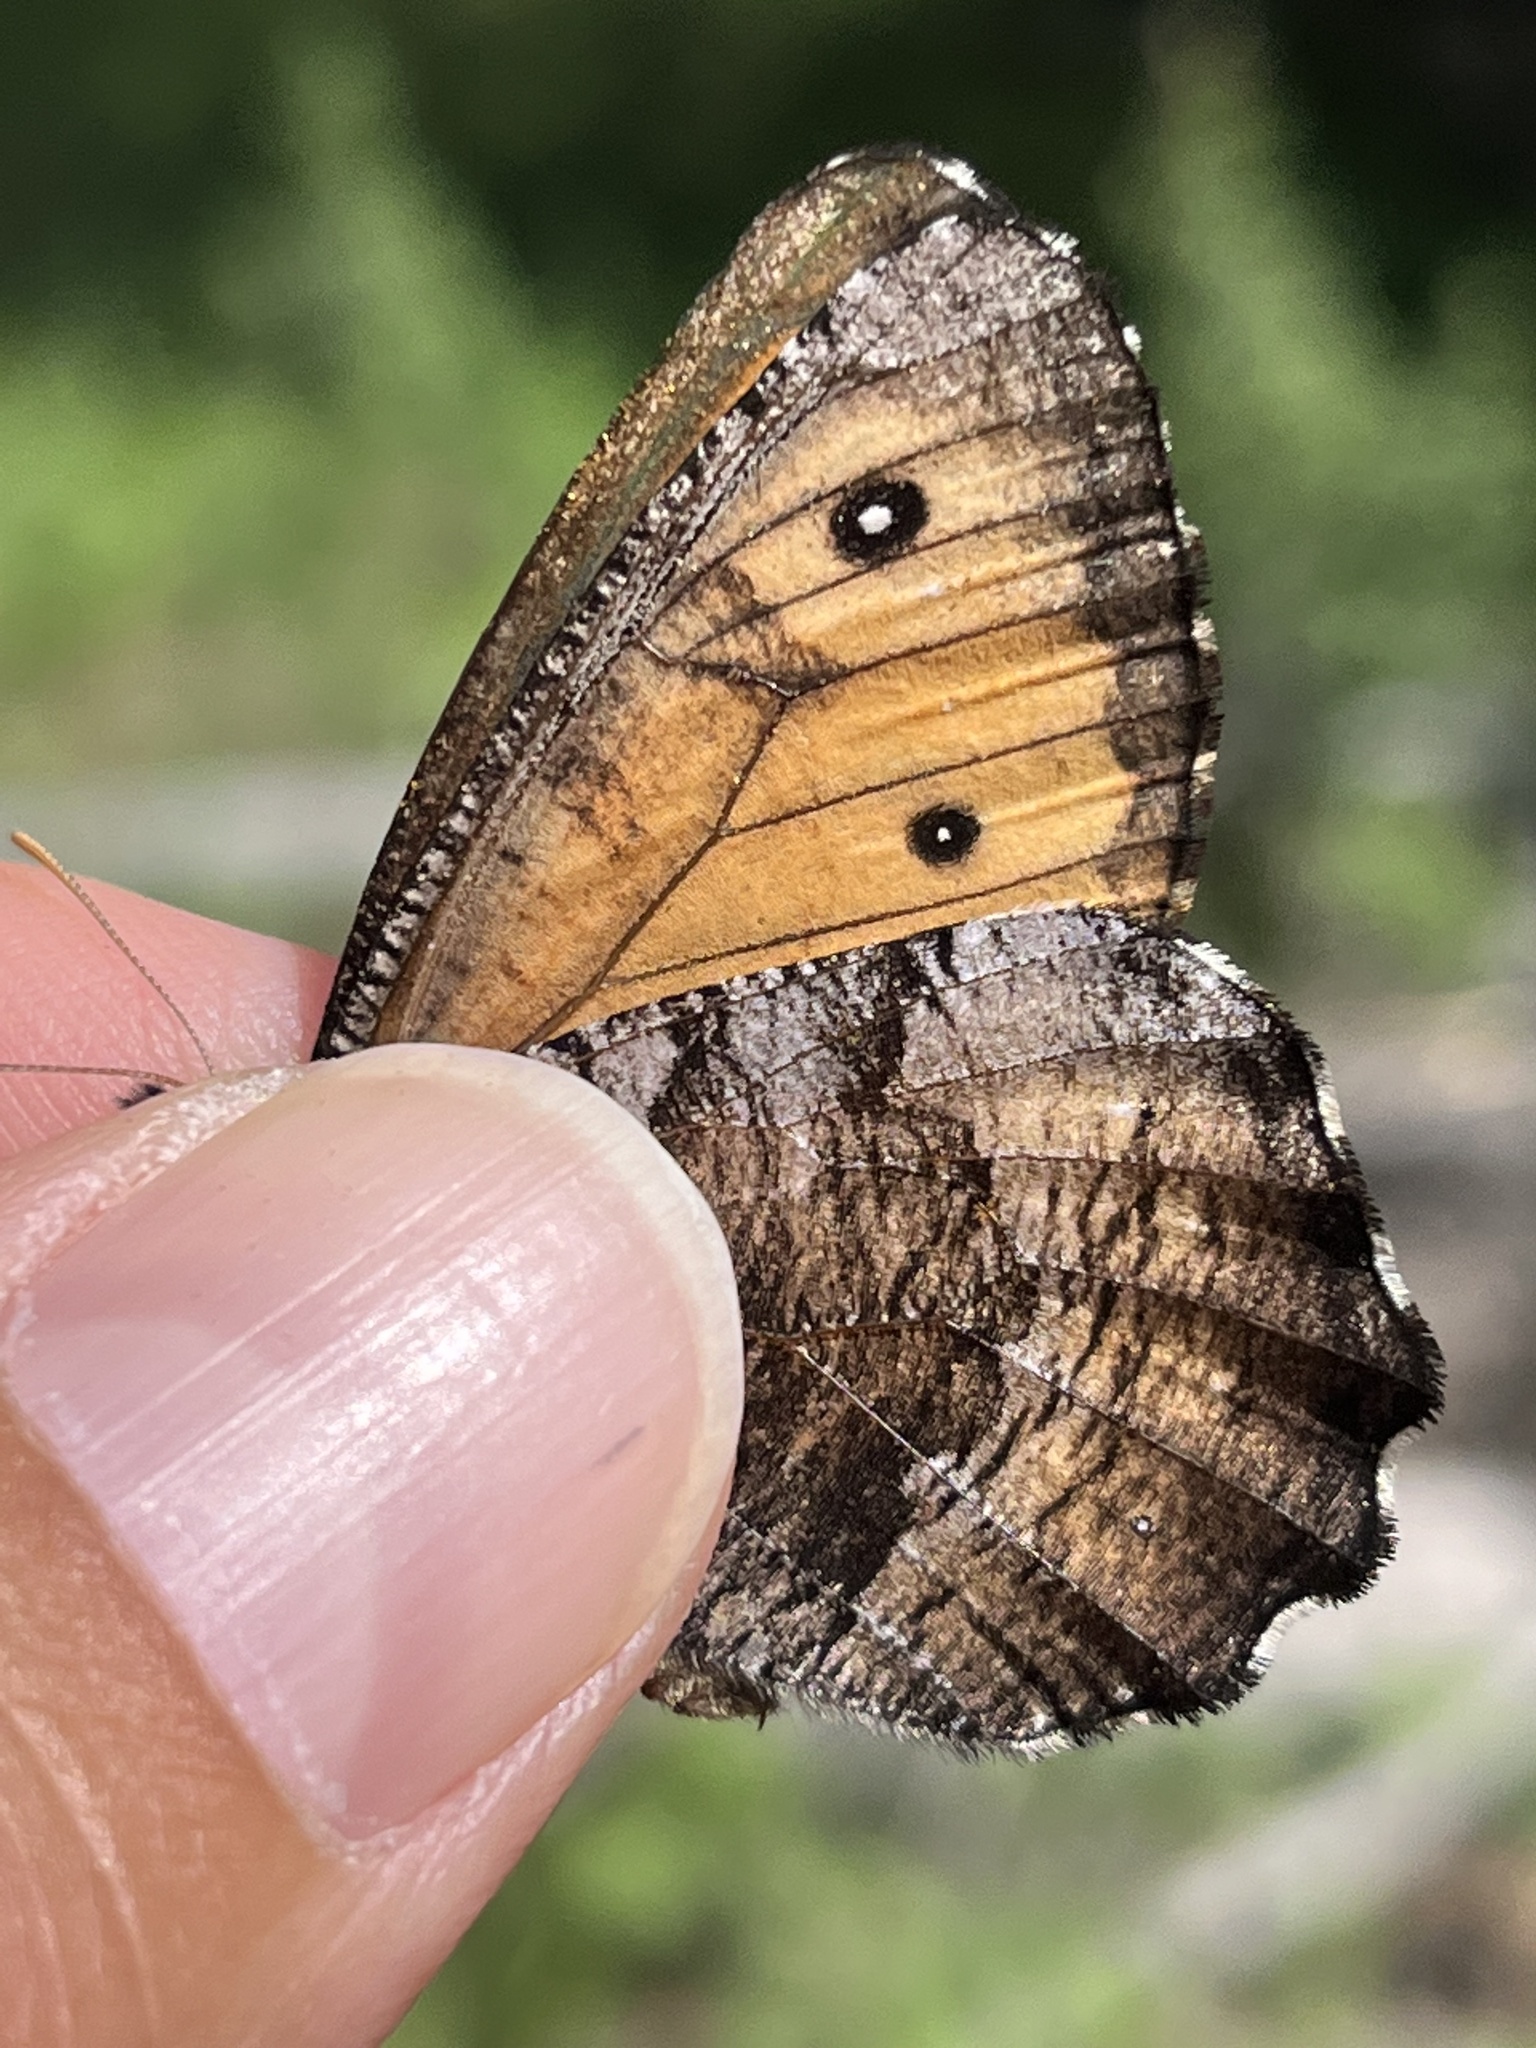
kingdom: Animalia
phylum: Arthropoda
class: Insecta
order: Lepidoptera
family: Nymphalidae
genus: Oeneis
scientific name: Oeneis macounii
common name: Macoun's arctic
